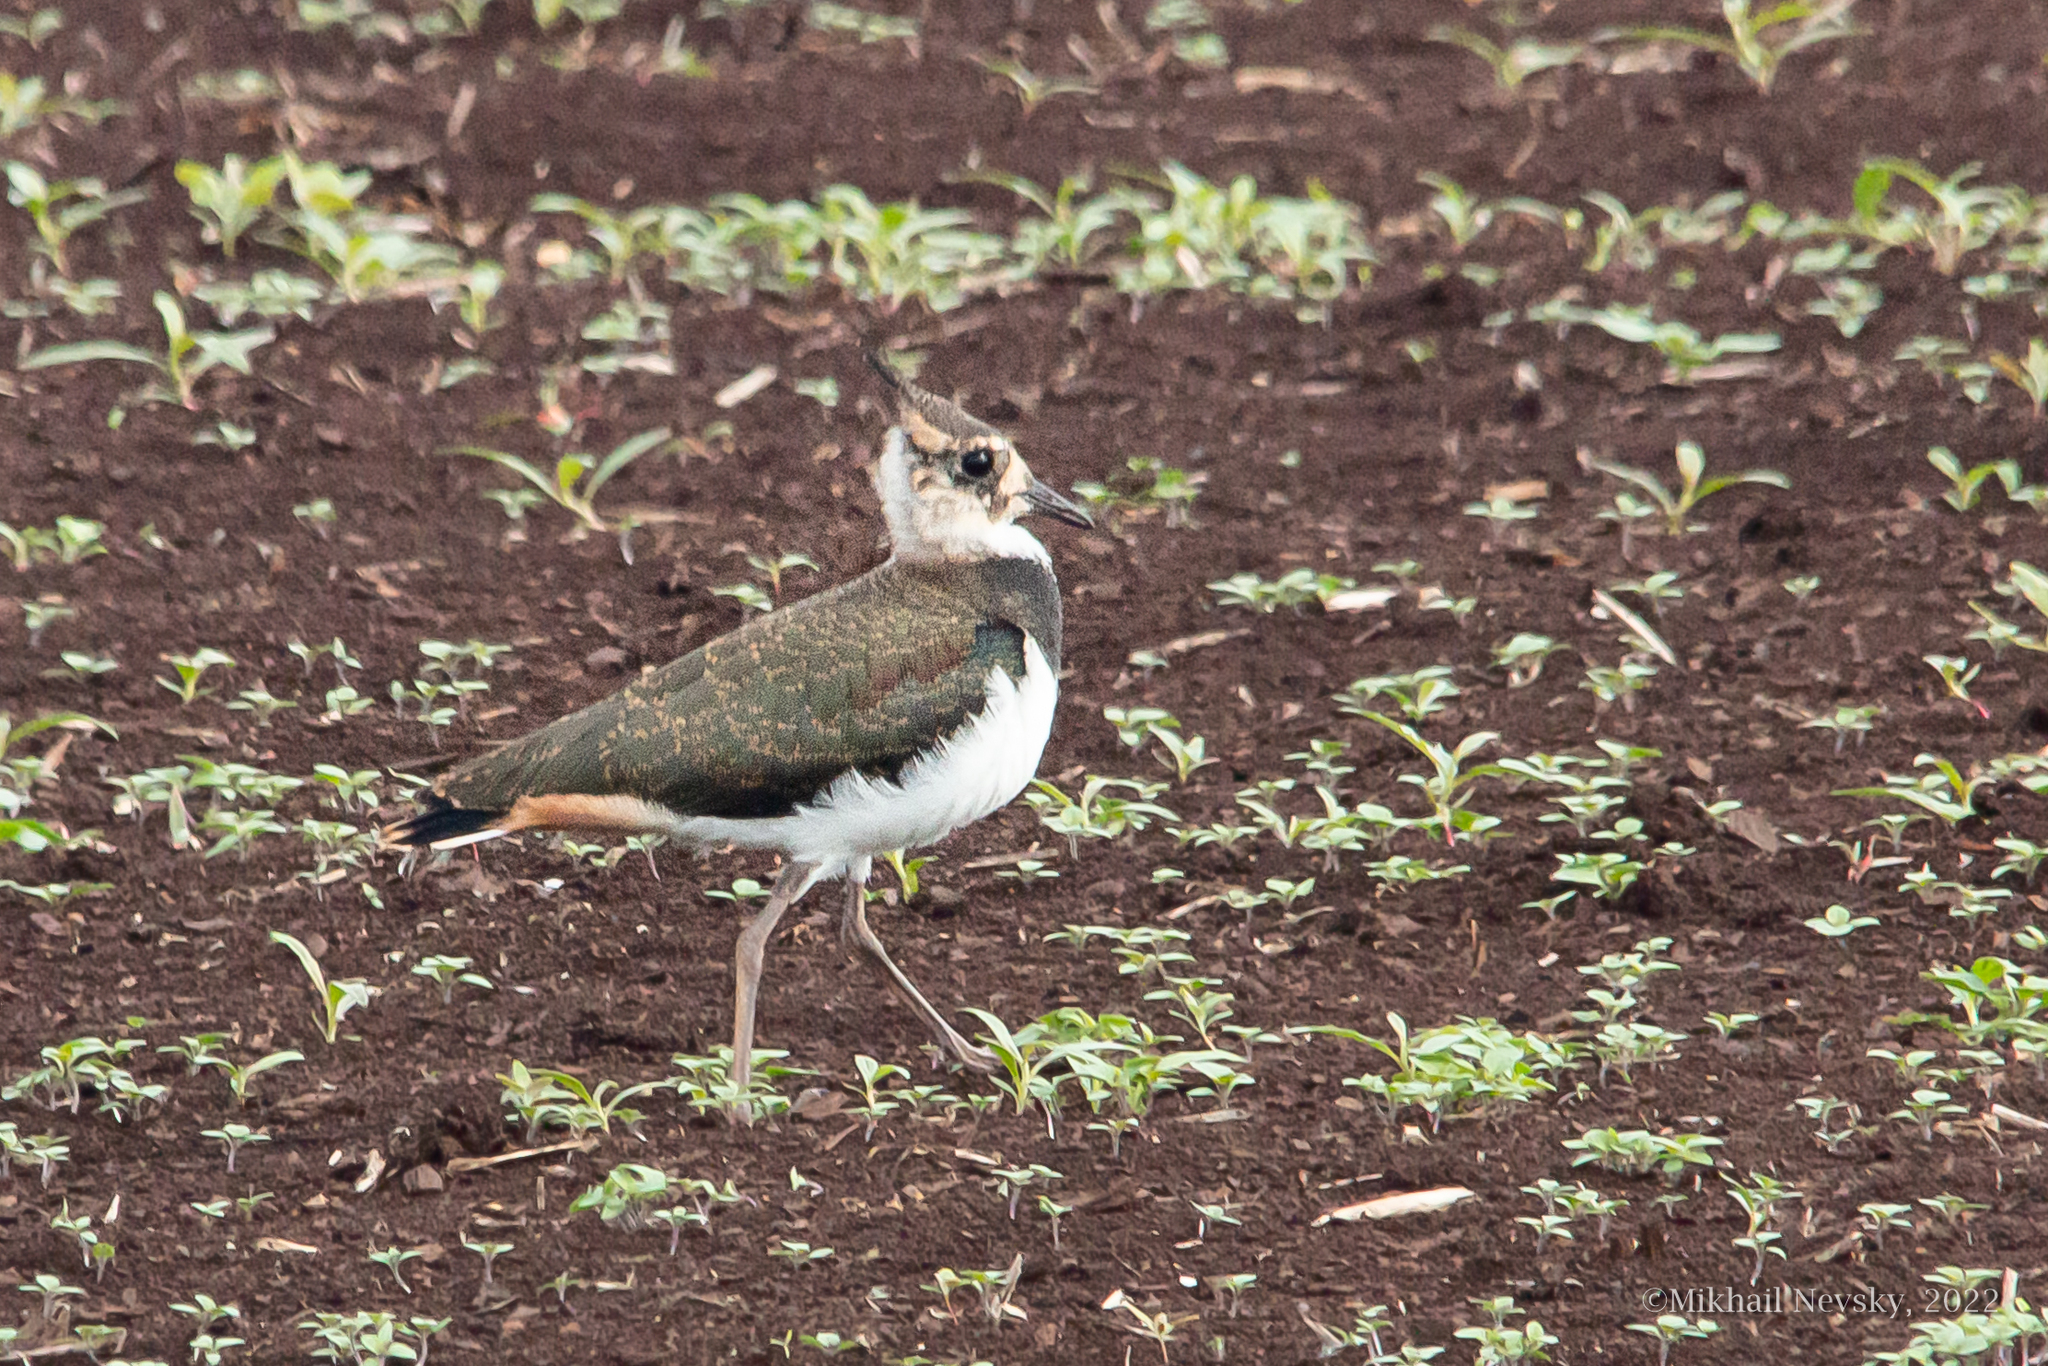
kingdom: Animalia
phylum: Chordata
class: Aves
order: Charadriiformes
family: Charadriidae
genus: Vanellus
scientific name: Vanellus vanellus
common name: Northern lapwing
